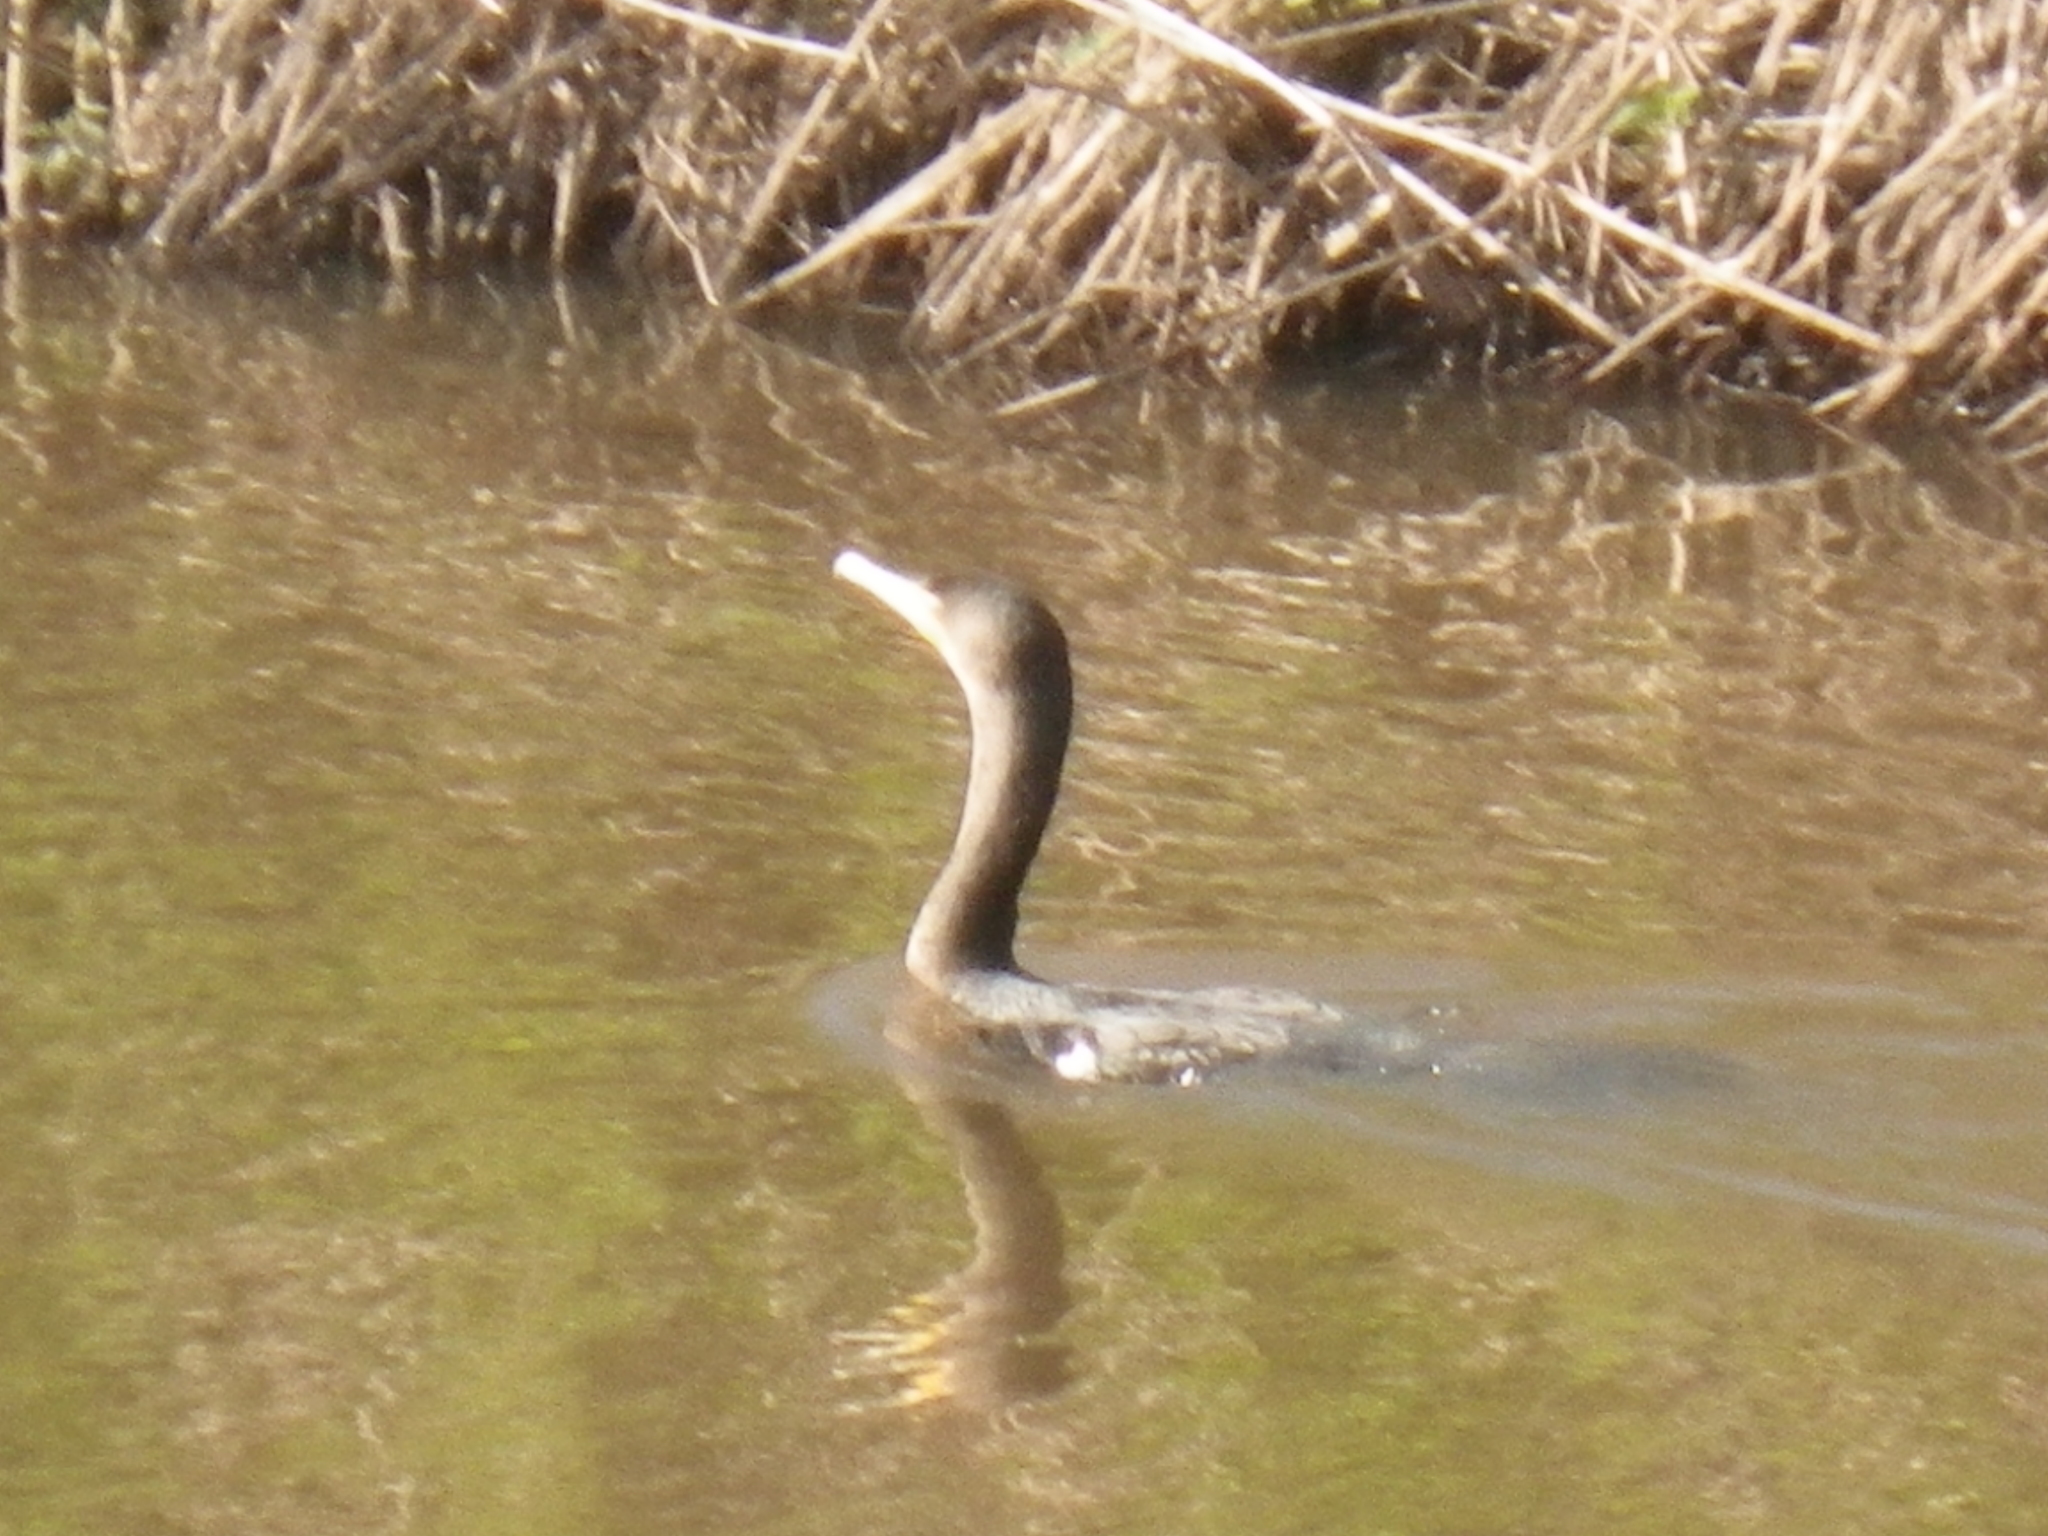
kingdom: Animalia
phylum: Chordata
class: Aves
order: Suliformes
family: Phalacrocoracidae
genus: Phalacrocorax
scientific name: Phalacrocorax auritus
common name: Double-crested cormorant
